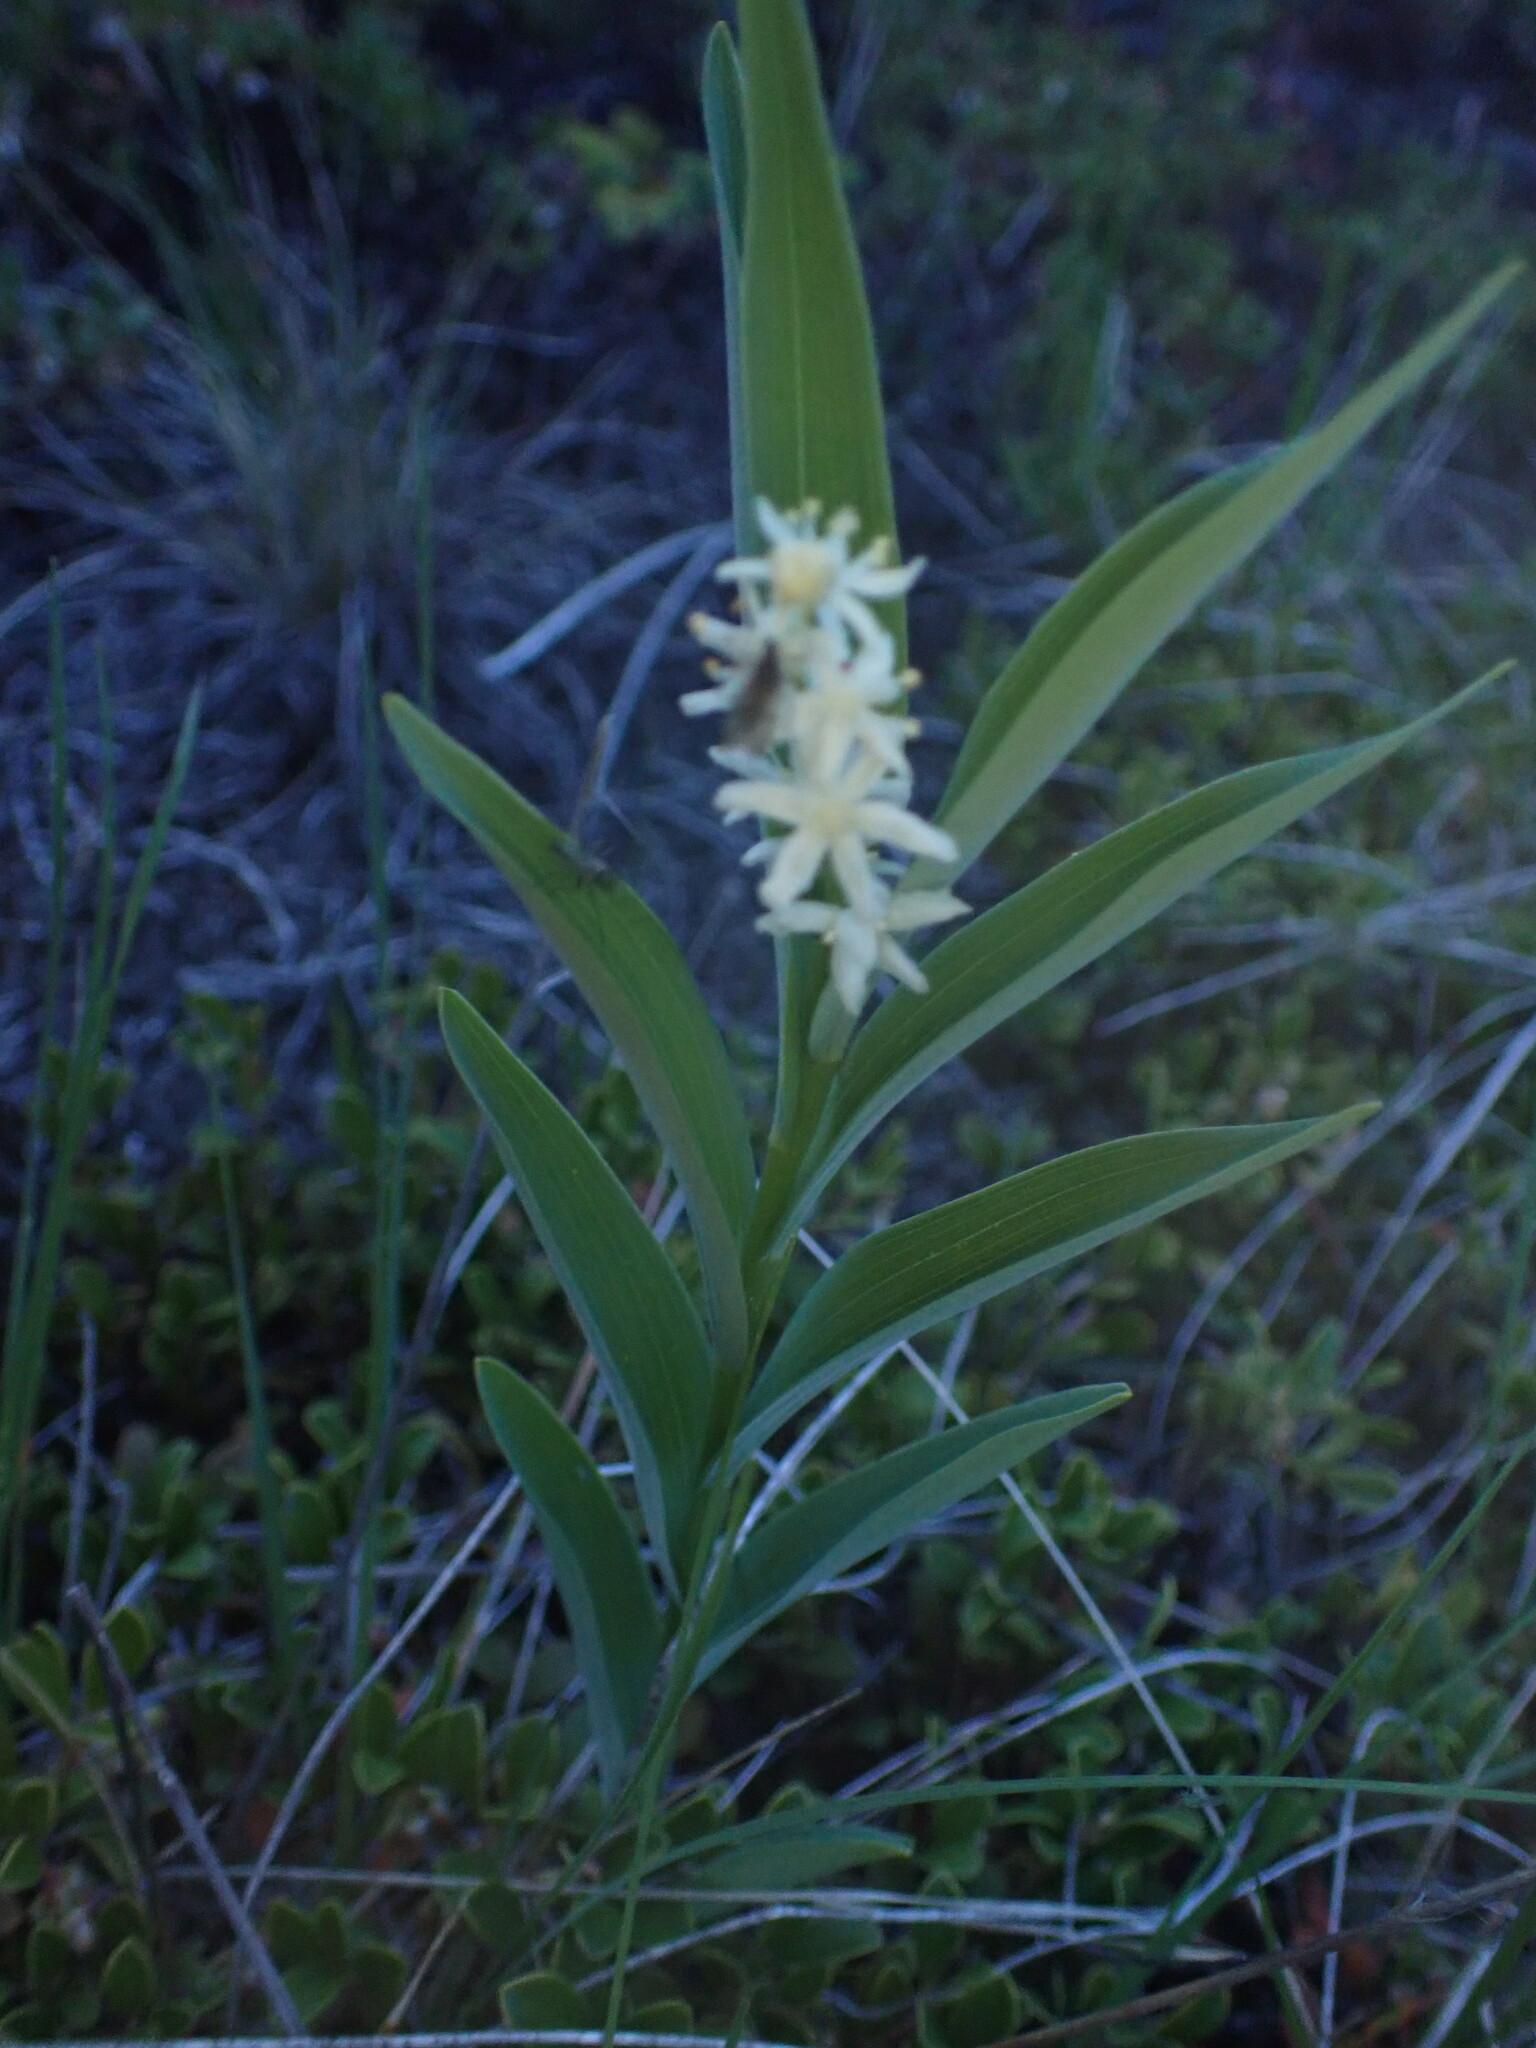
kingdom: Plantae
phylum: Tracheophyta
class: Liliopsida
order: Asparagales
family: Asparagaceae
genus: Maianthemum
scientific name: Maianthemum stellatum
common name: Little false solomon's seal
